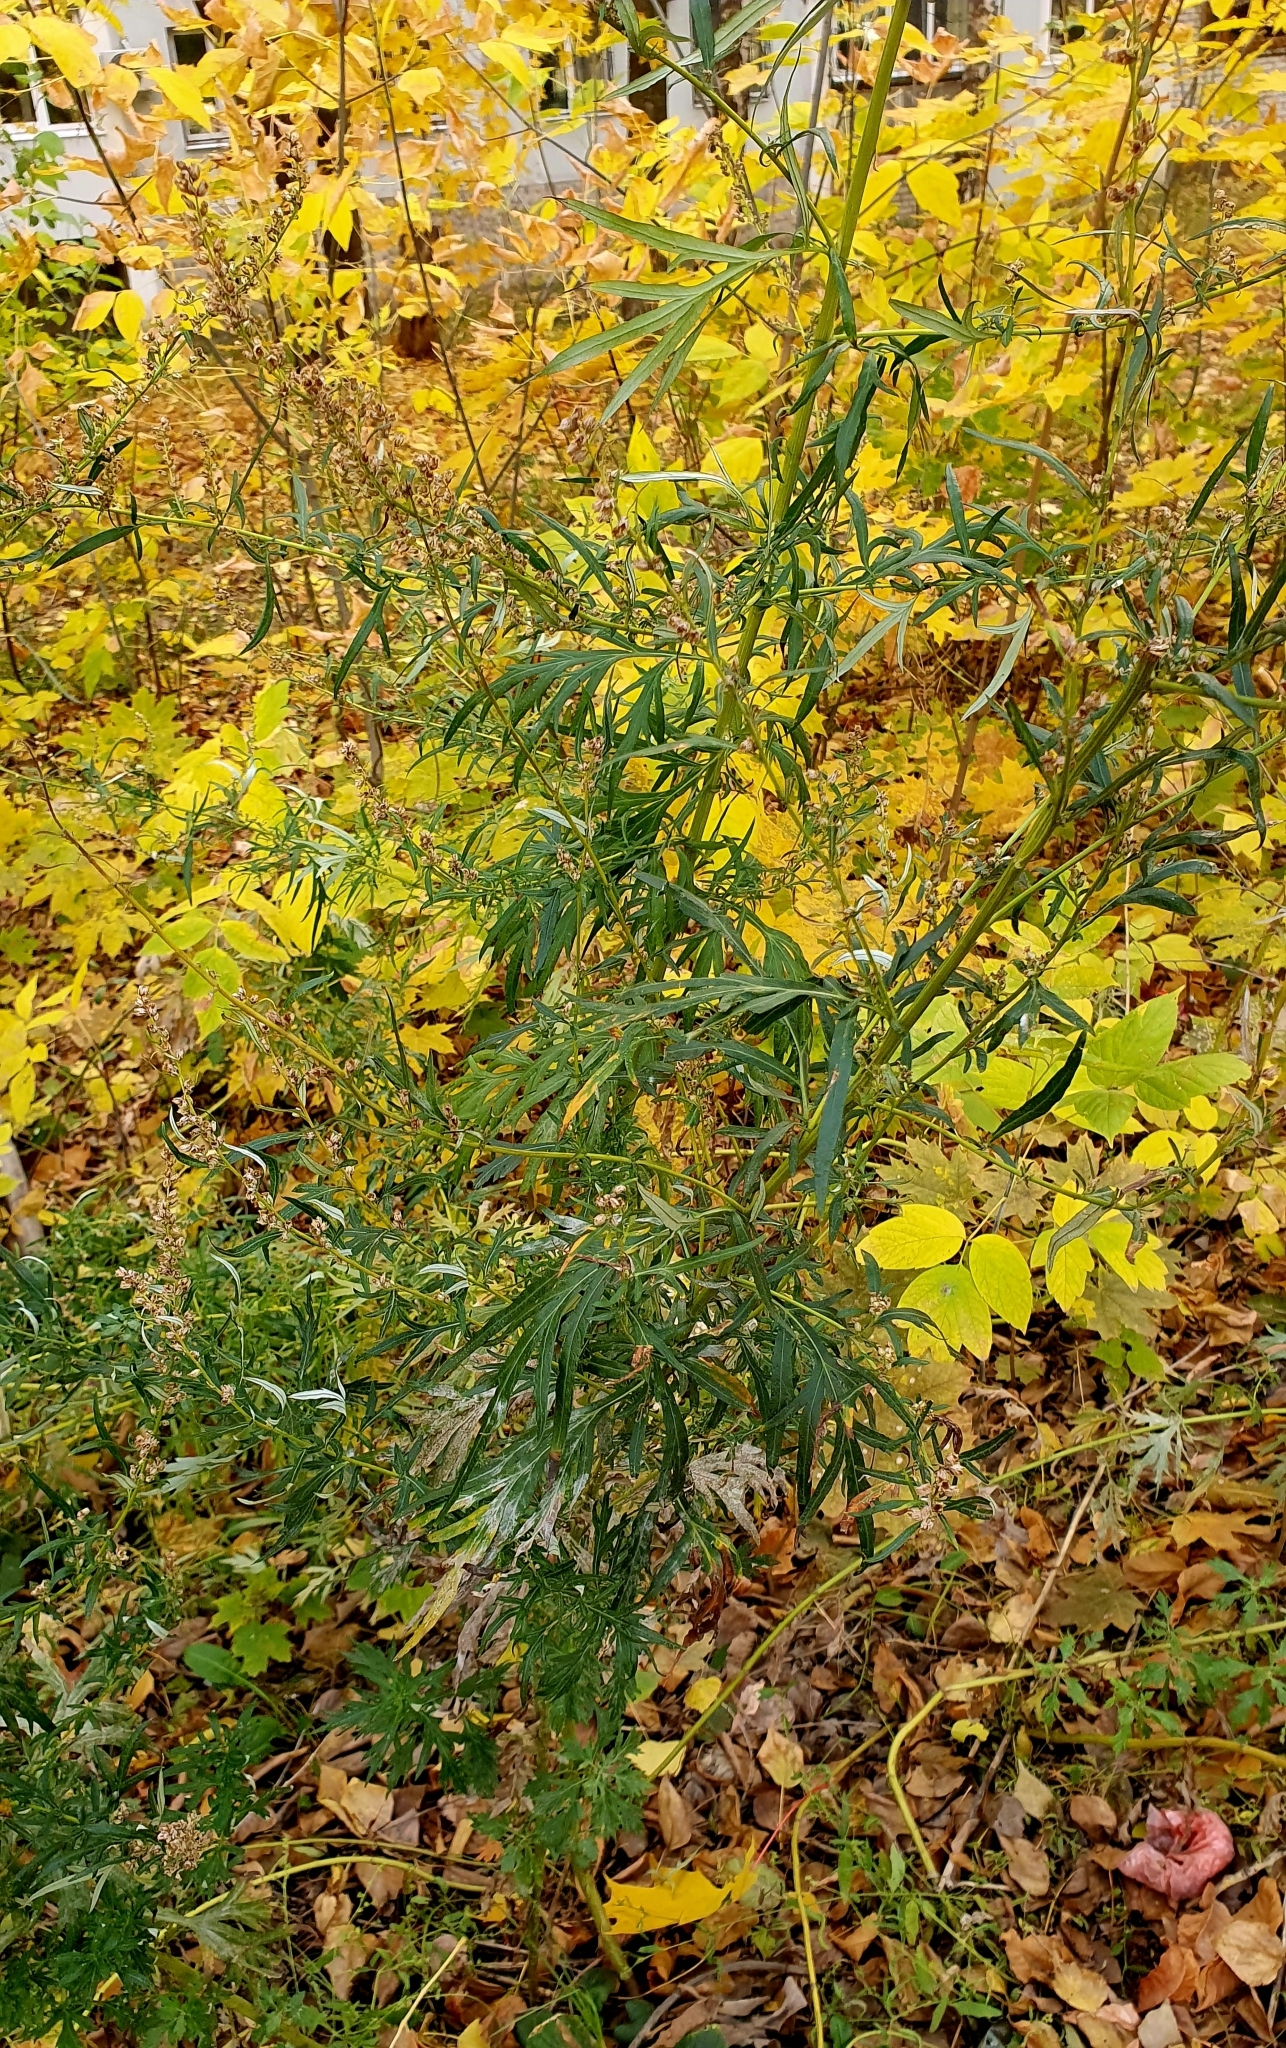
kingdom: Plantae
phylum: Tracheophyta
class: Magnoliopsida
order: Asterales
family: Asteraceae
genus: Artemisia
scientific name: Artemisia vulgaris
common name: Mugwort
